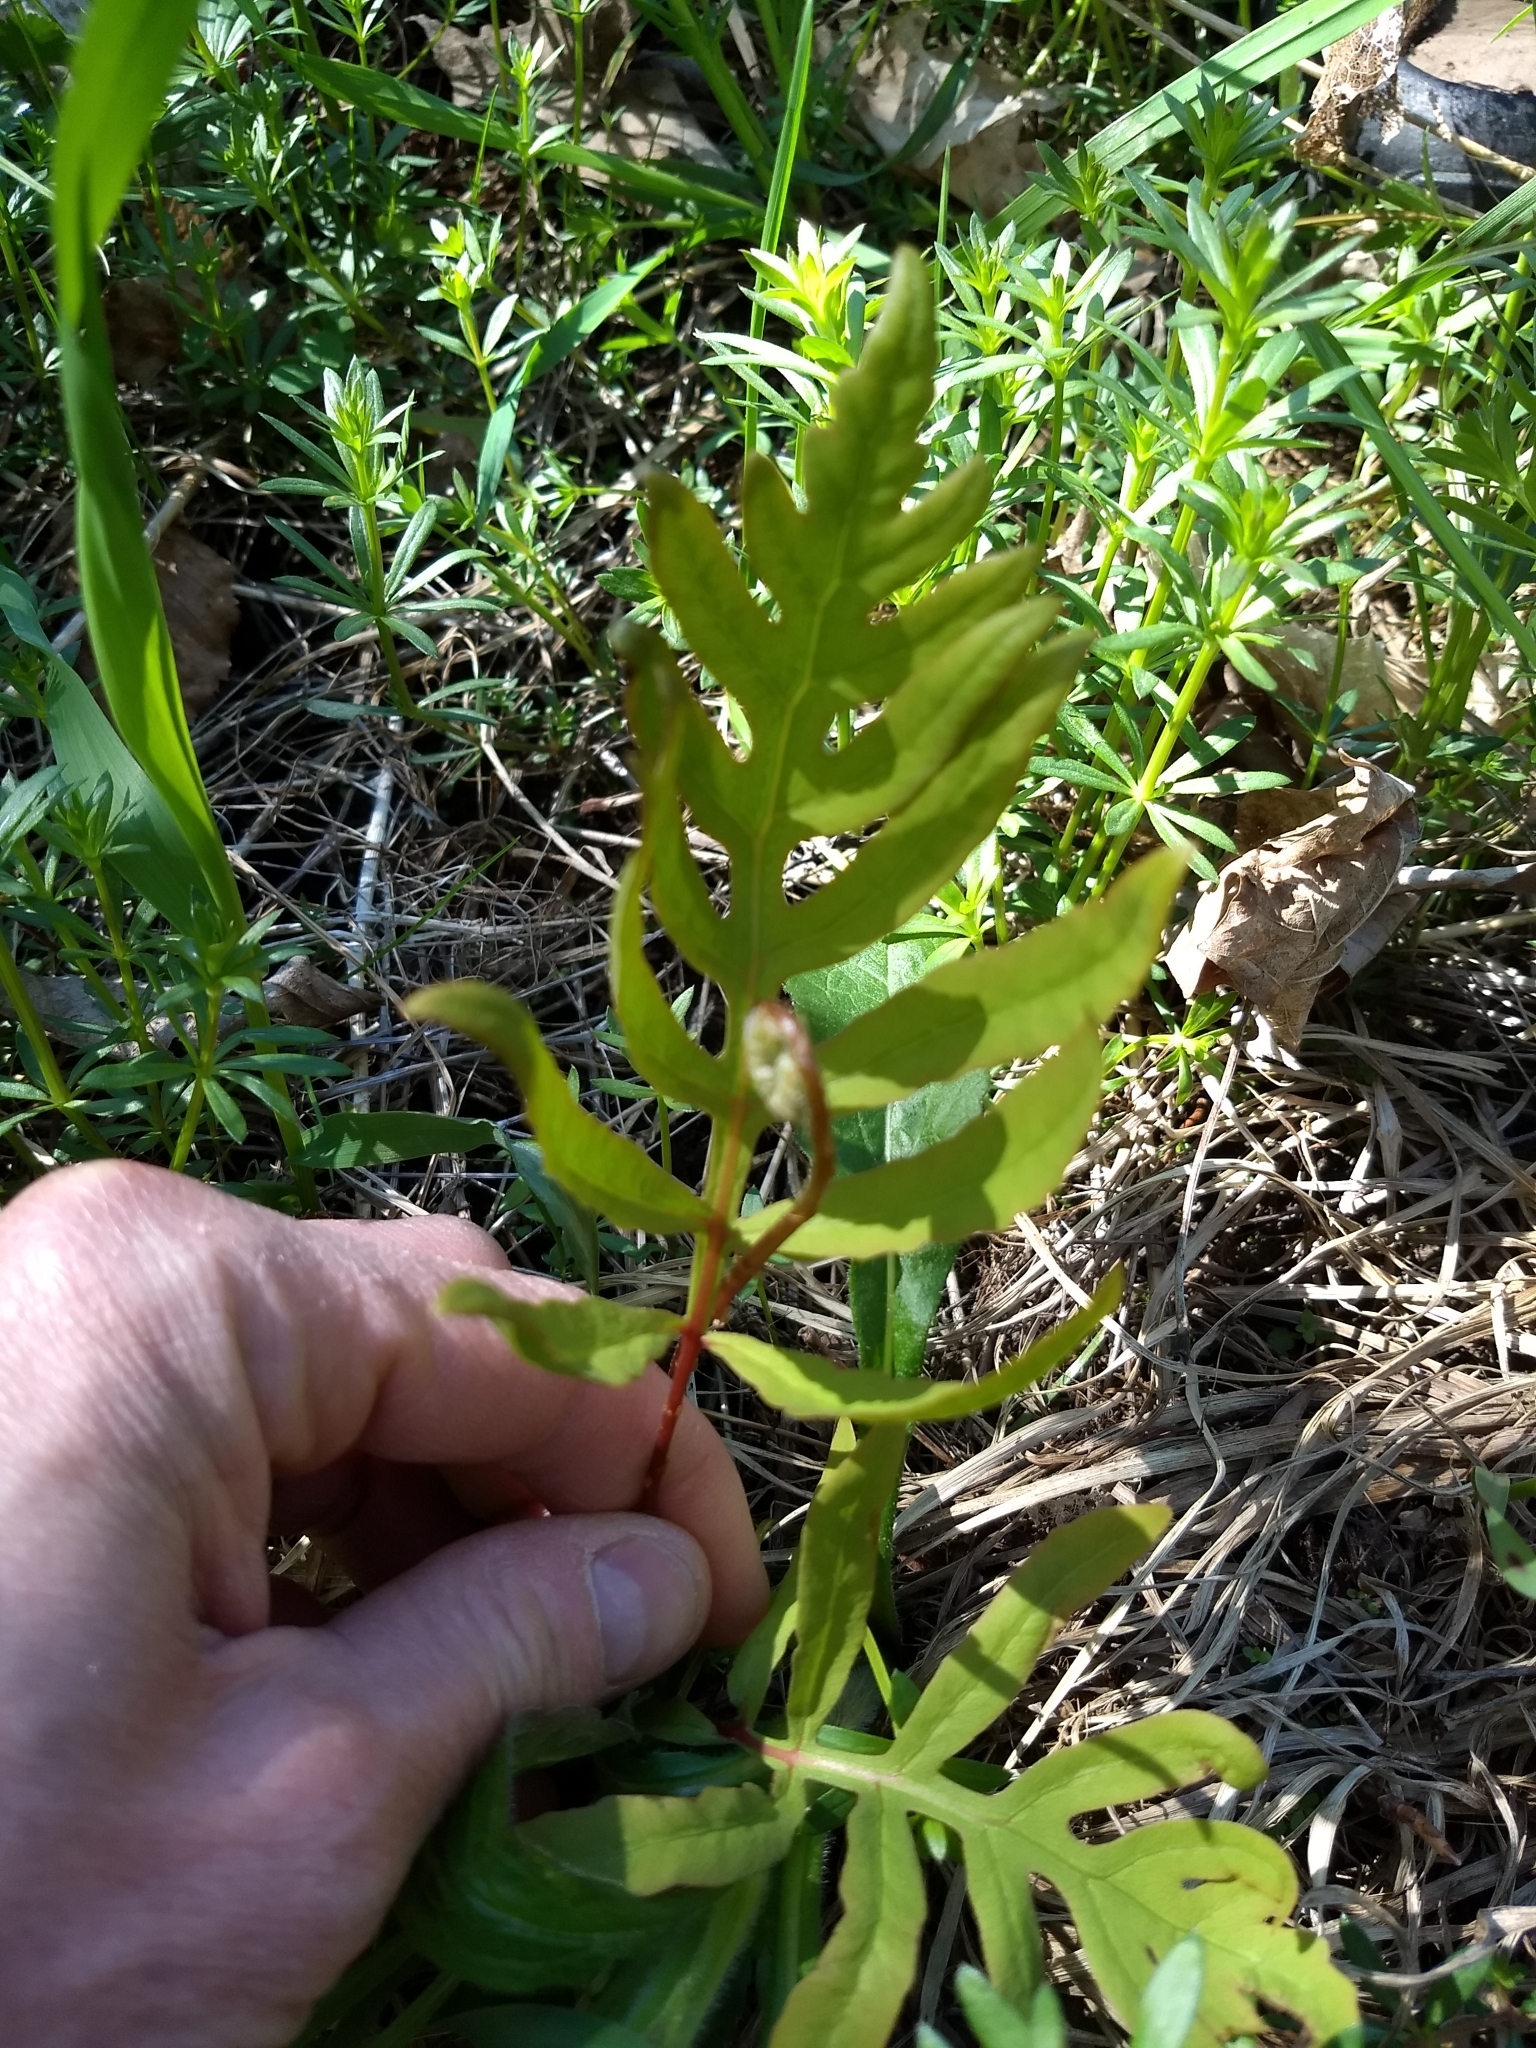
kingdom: Plantae
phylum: Tracheophyta
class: Polypodiopsida
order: Polypodiales
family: Onocleaceae
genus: Onoclea
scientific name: Onoclea sensibilis
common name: Sensitive fern
